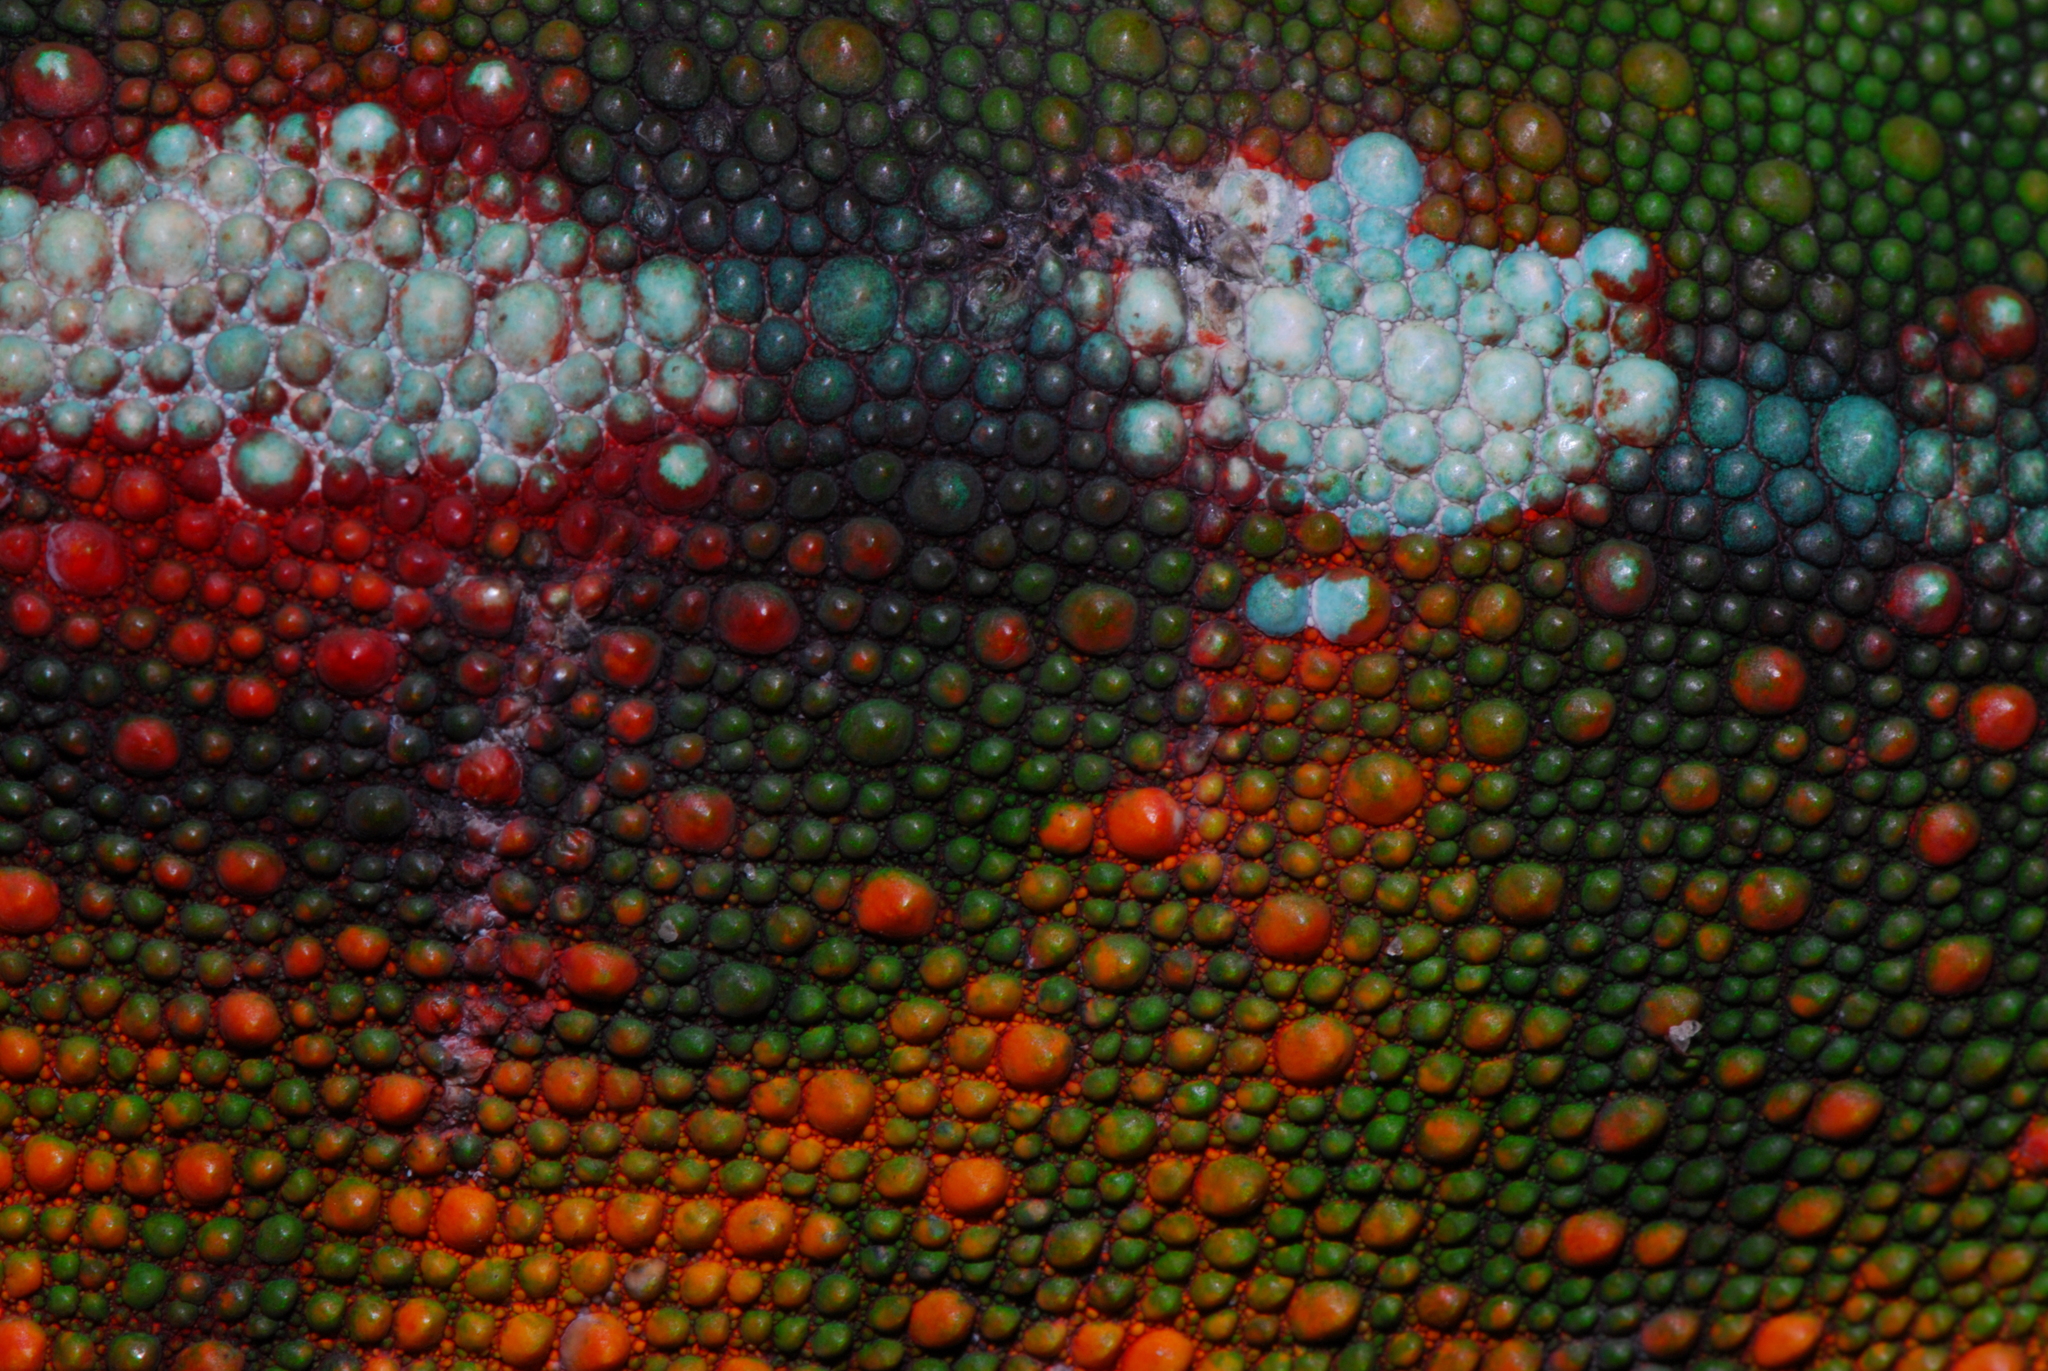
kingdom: Animalia
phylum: Chordata
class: Squamata
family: Chamaeleonidae
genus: Furcifer
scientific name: Furcifer pardalis
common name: Panther chameleon
